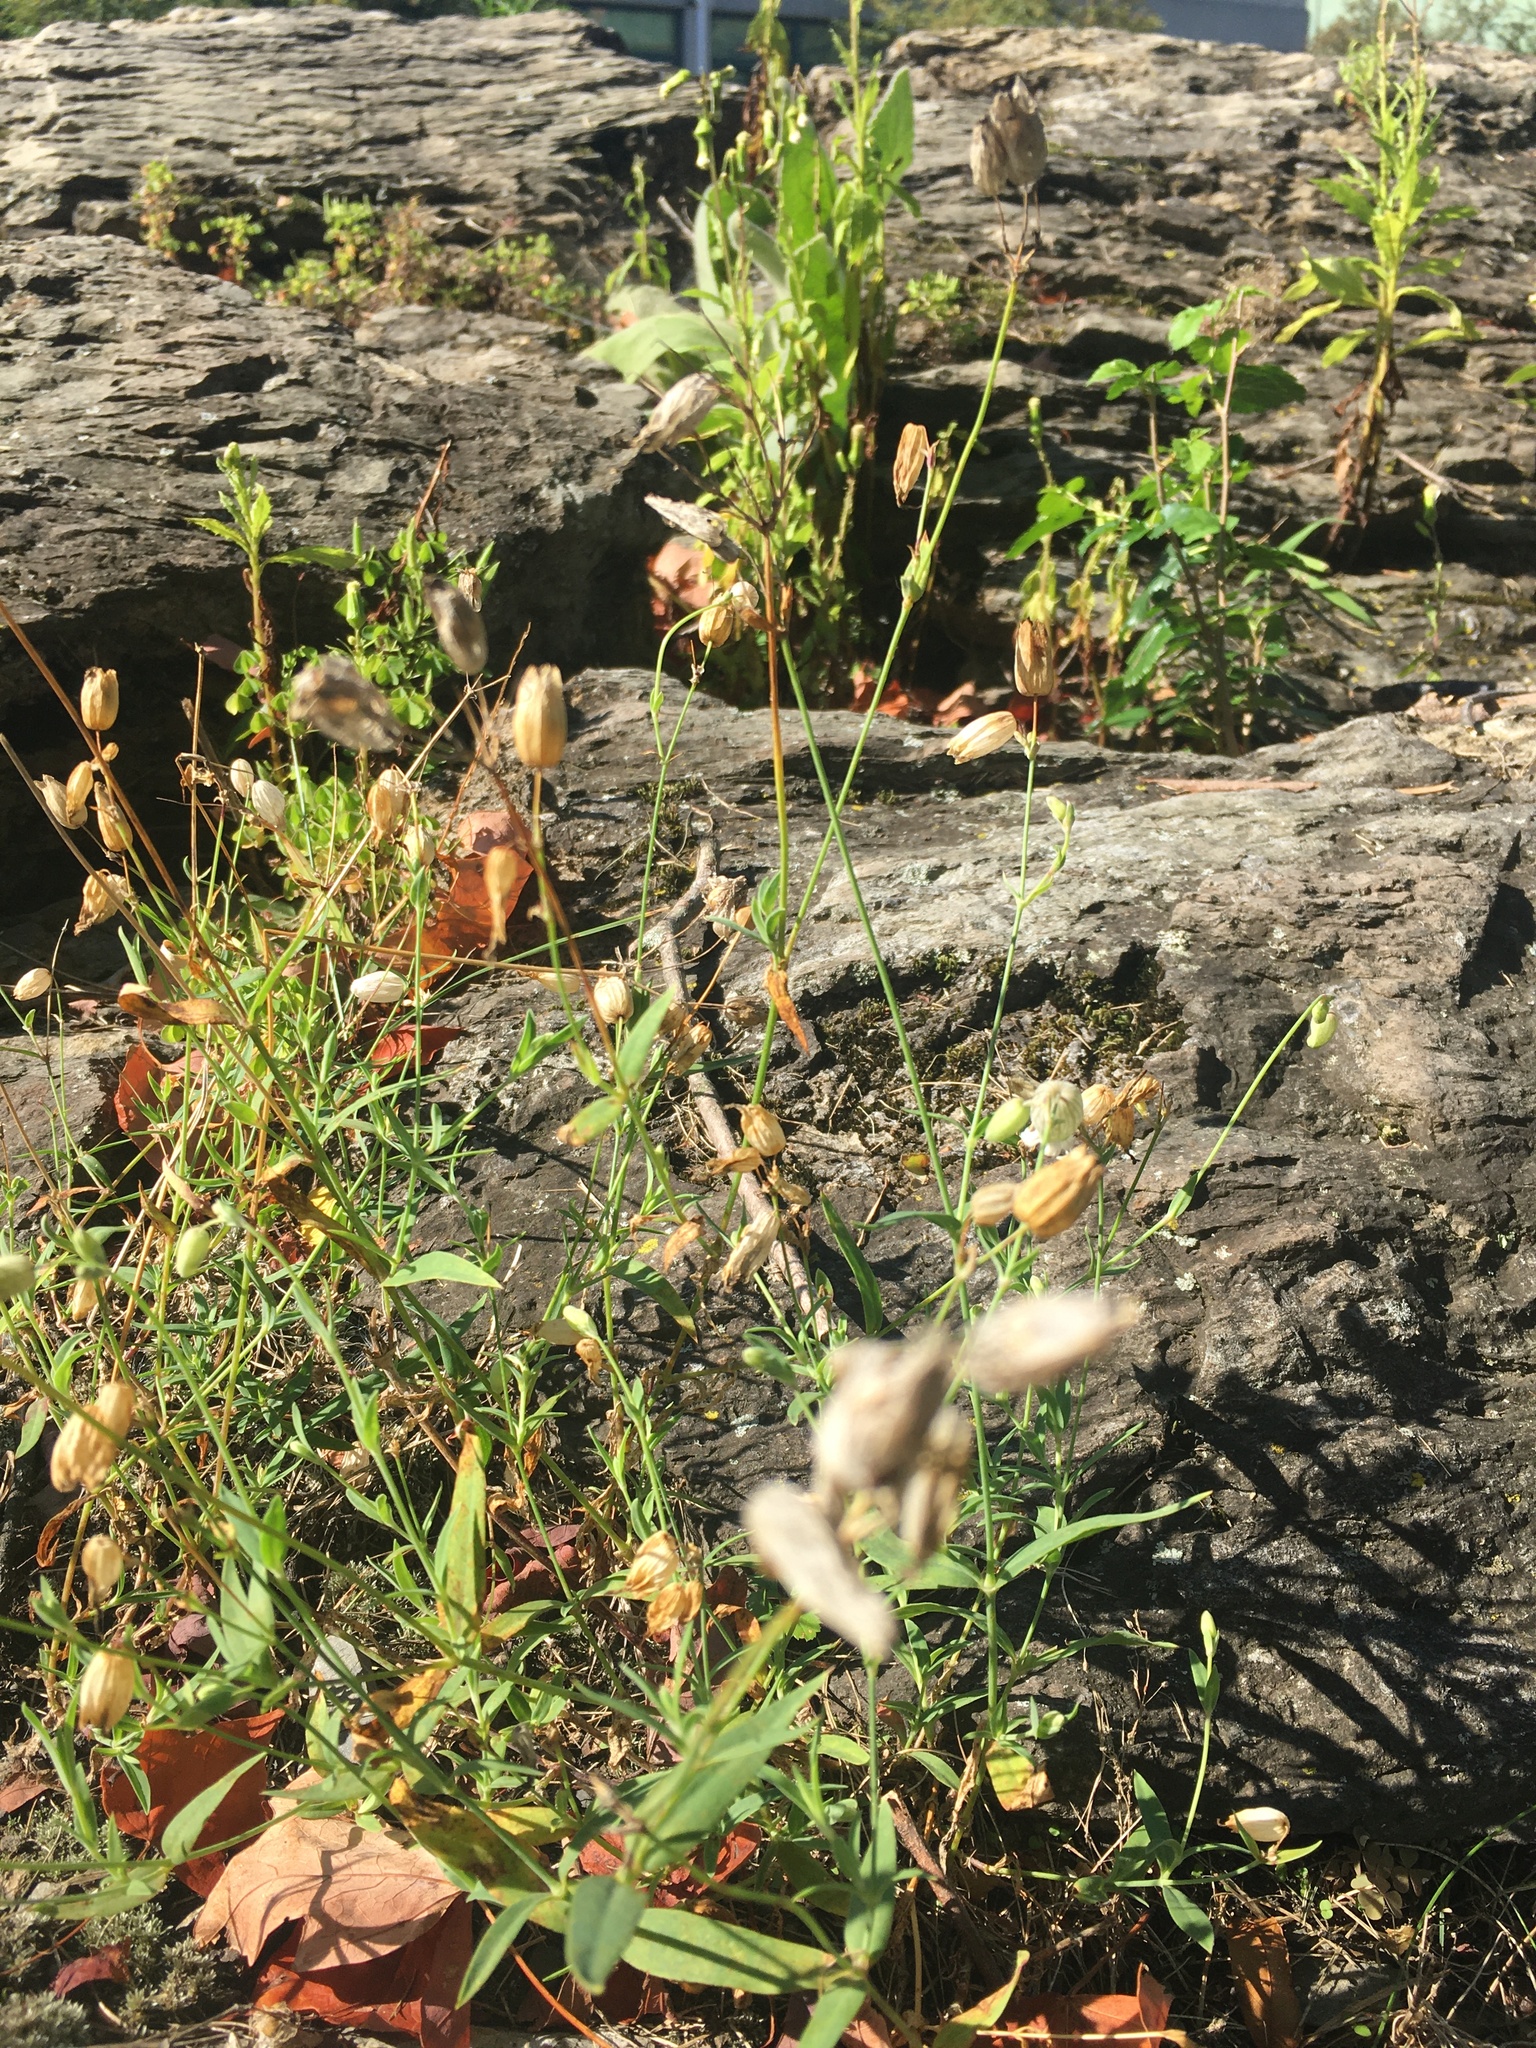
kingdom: Plantae
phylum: Tracheophyta
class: Magnoliopsida
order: Caryophyllales
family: Caryophyllaceae
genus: Silene
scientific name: Silene vulgaris
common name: Bladder campion
